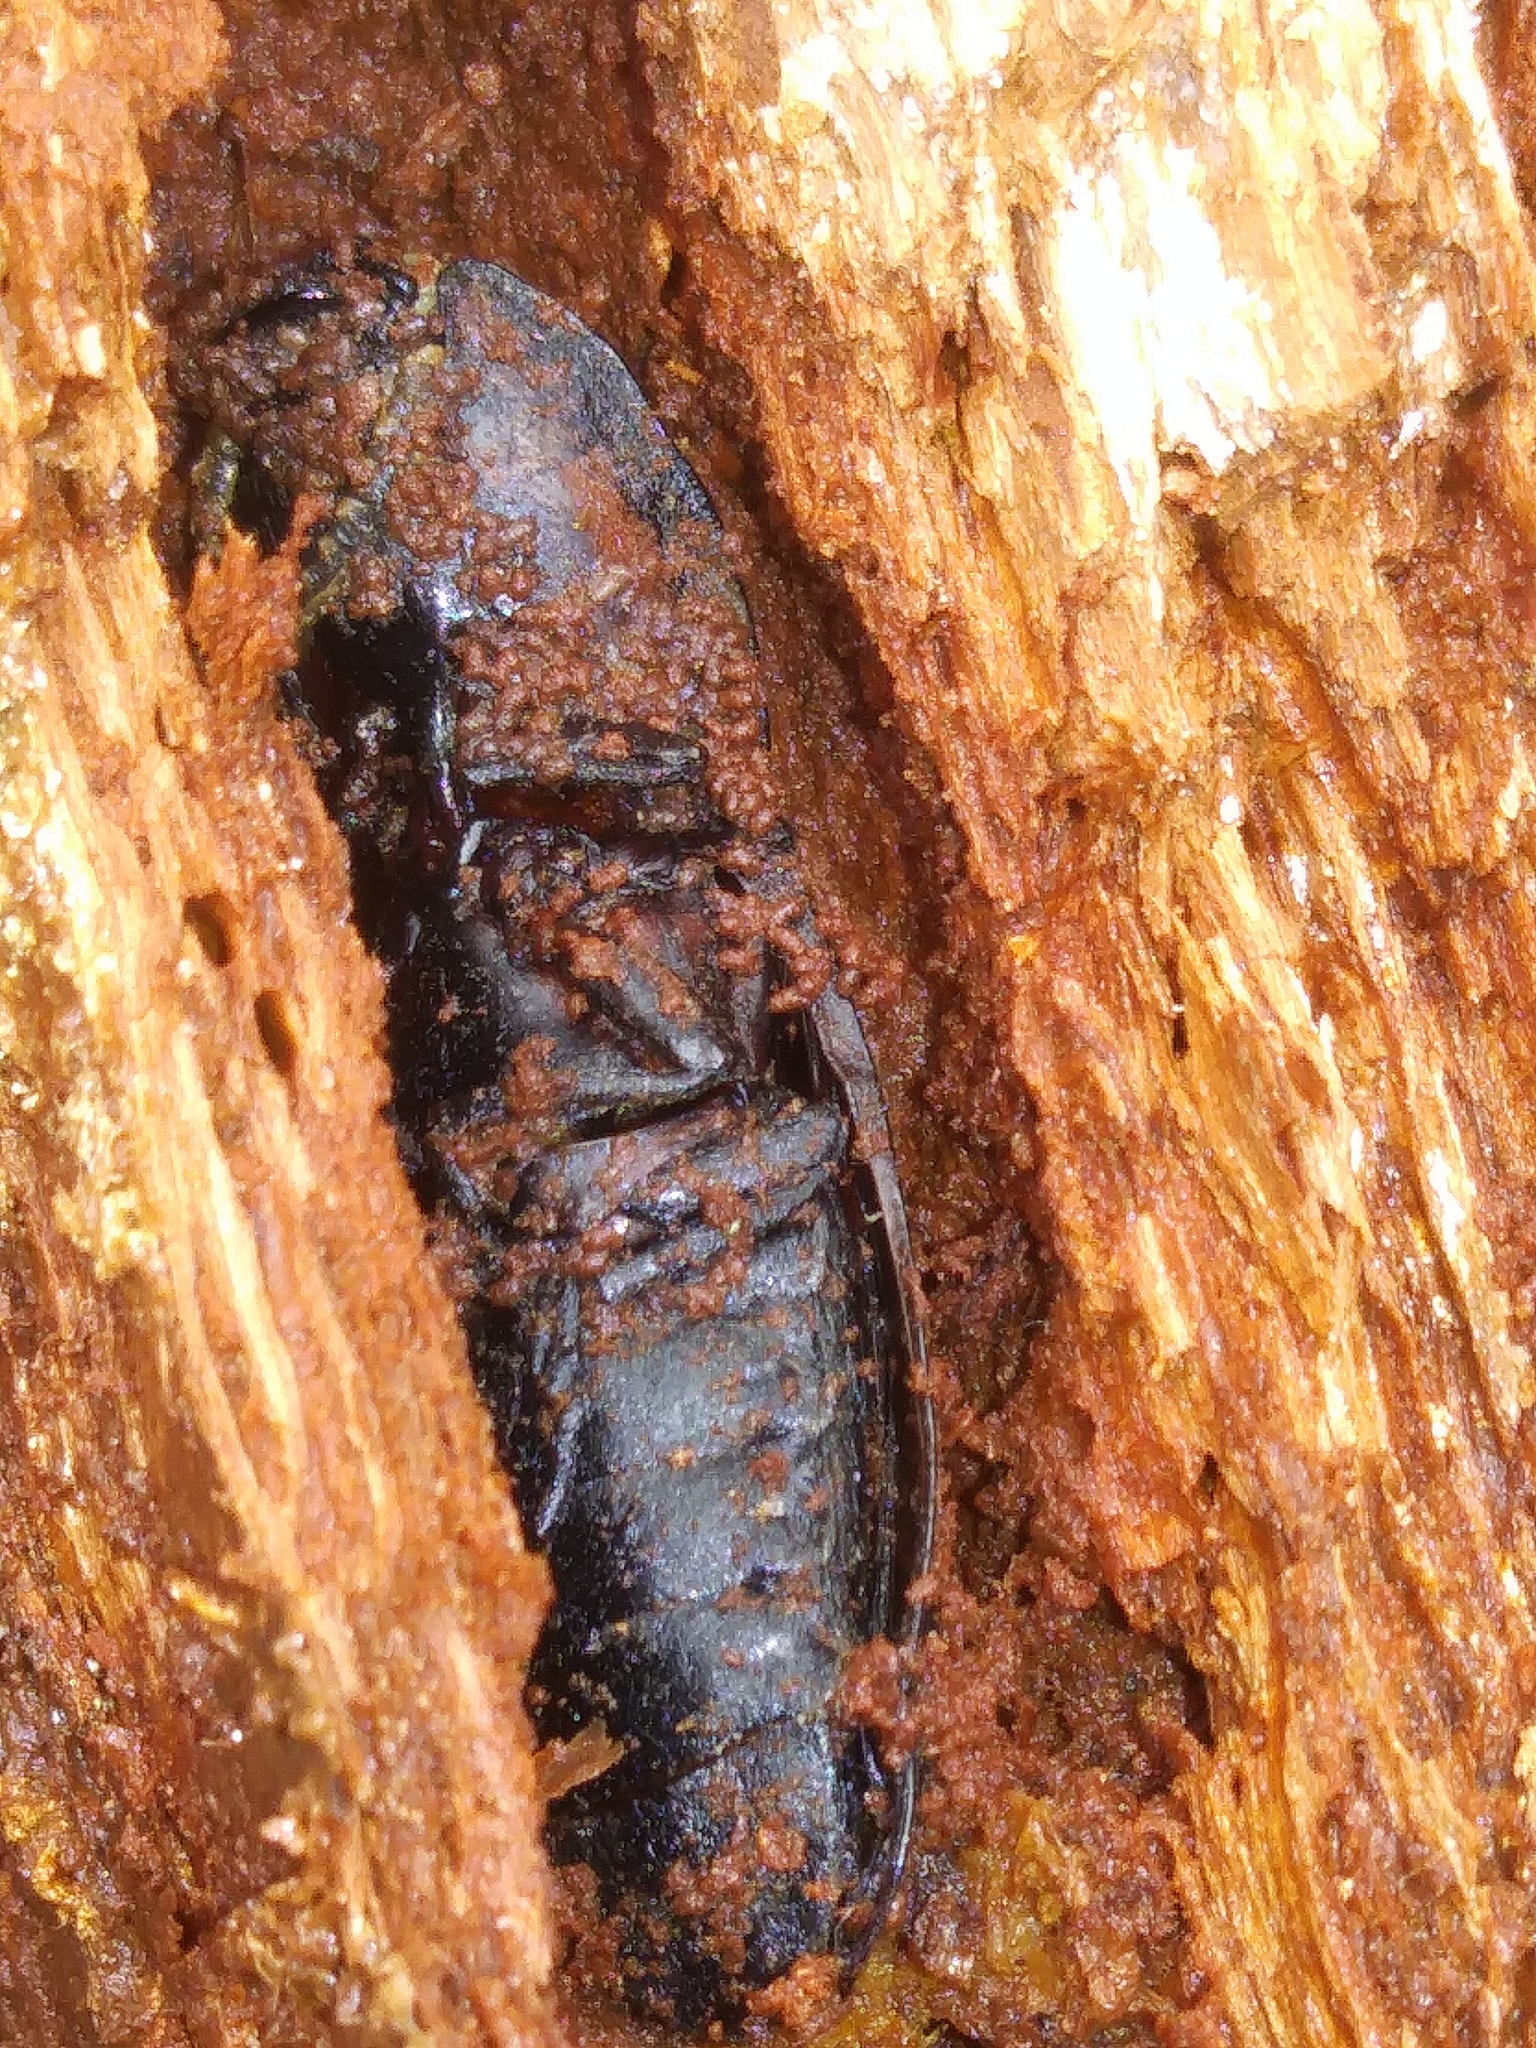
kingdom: Animalia
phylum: Arthropoda
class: Insecta
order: Coleoptera
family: Elateridae
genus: Alaus
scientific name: Alaus oculatus
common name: Eastern eyed click beetle
